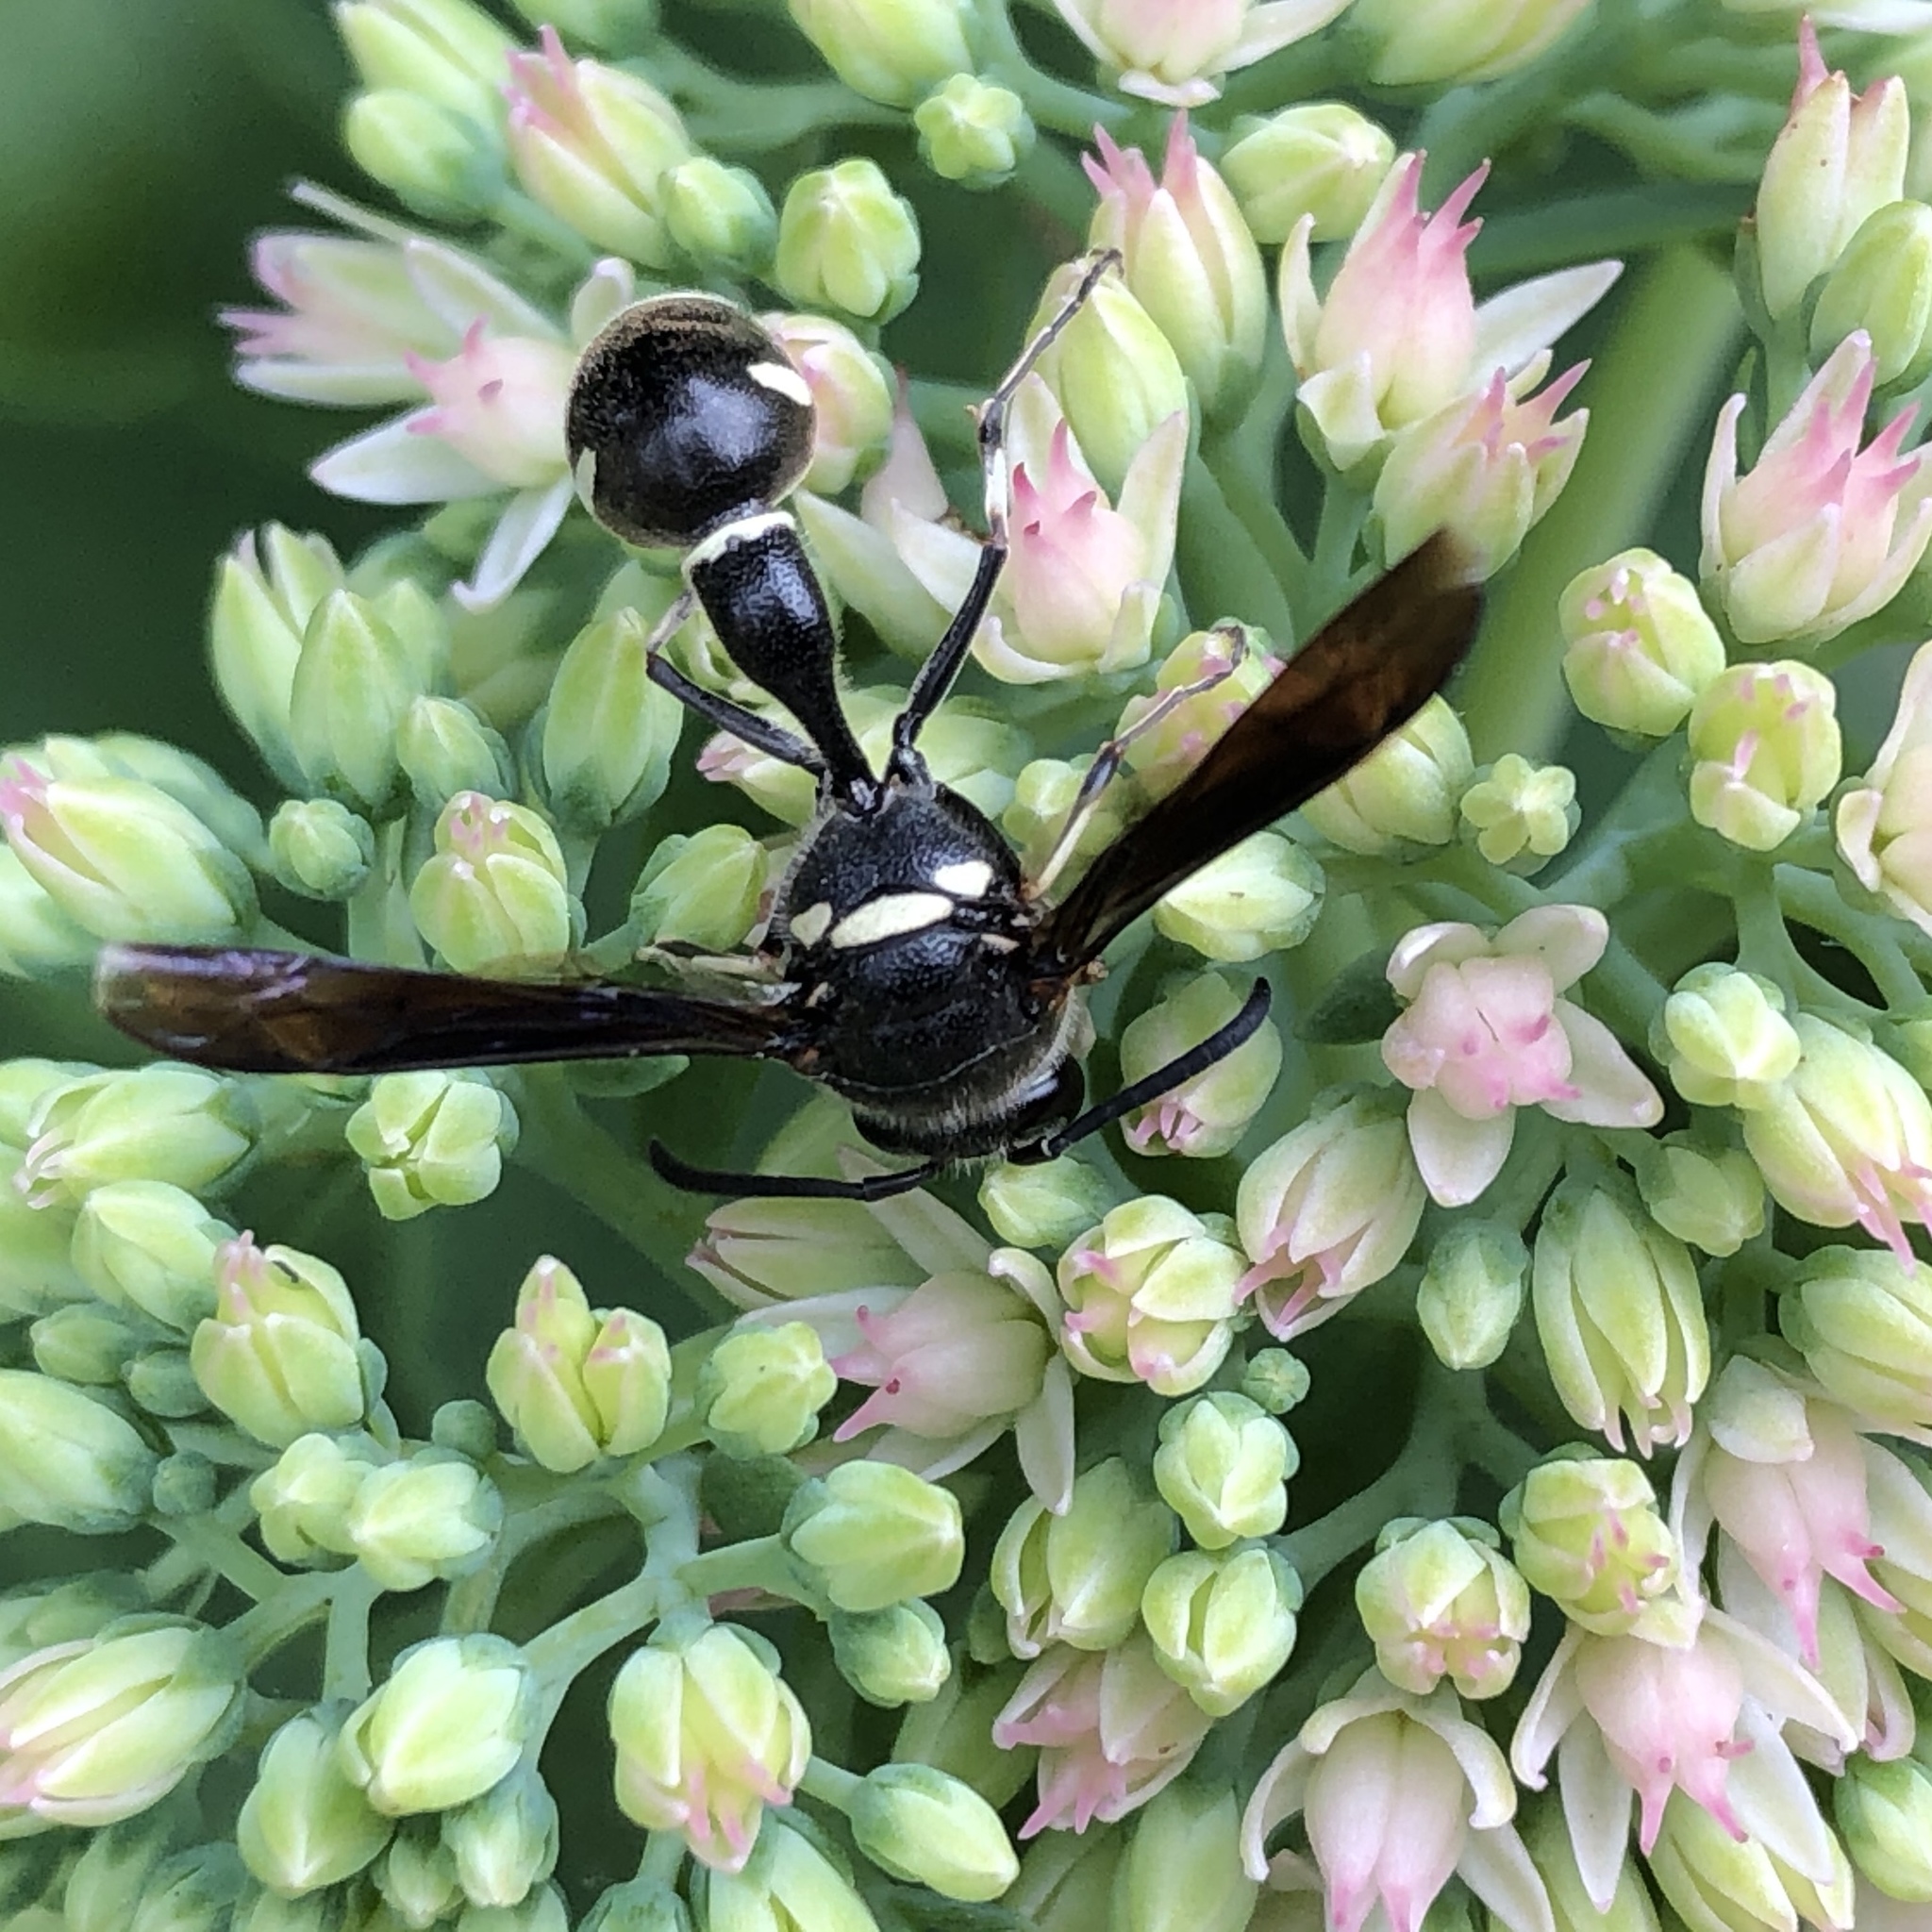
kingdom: Animalia
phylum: Arthropoda
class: Insecta
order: Hymenoptera
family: Vespidae
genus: Eumenes
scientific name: Eumenes fraternus
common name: Fraternal potter wasp
